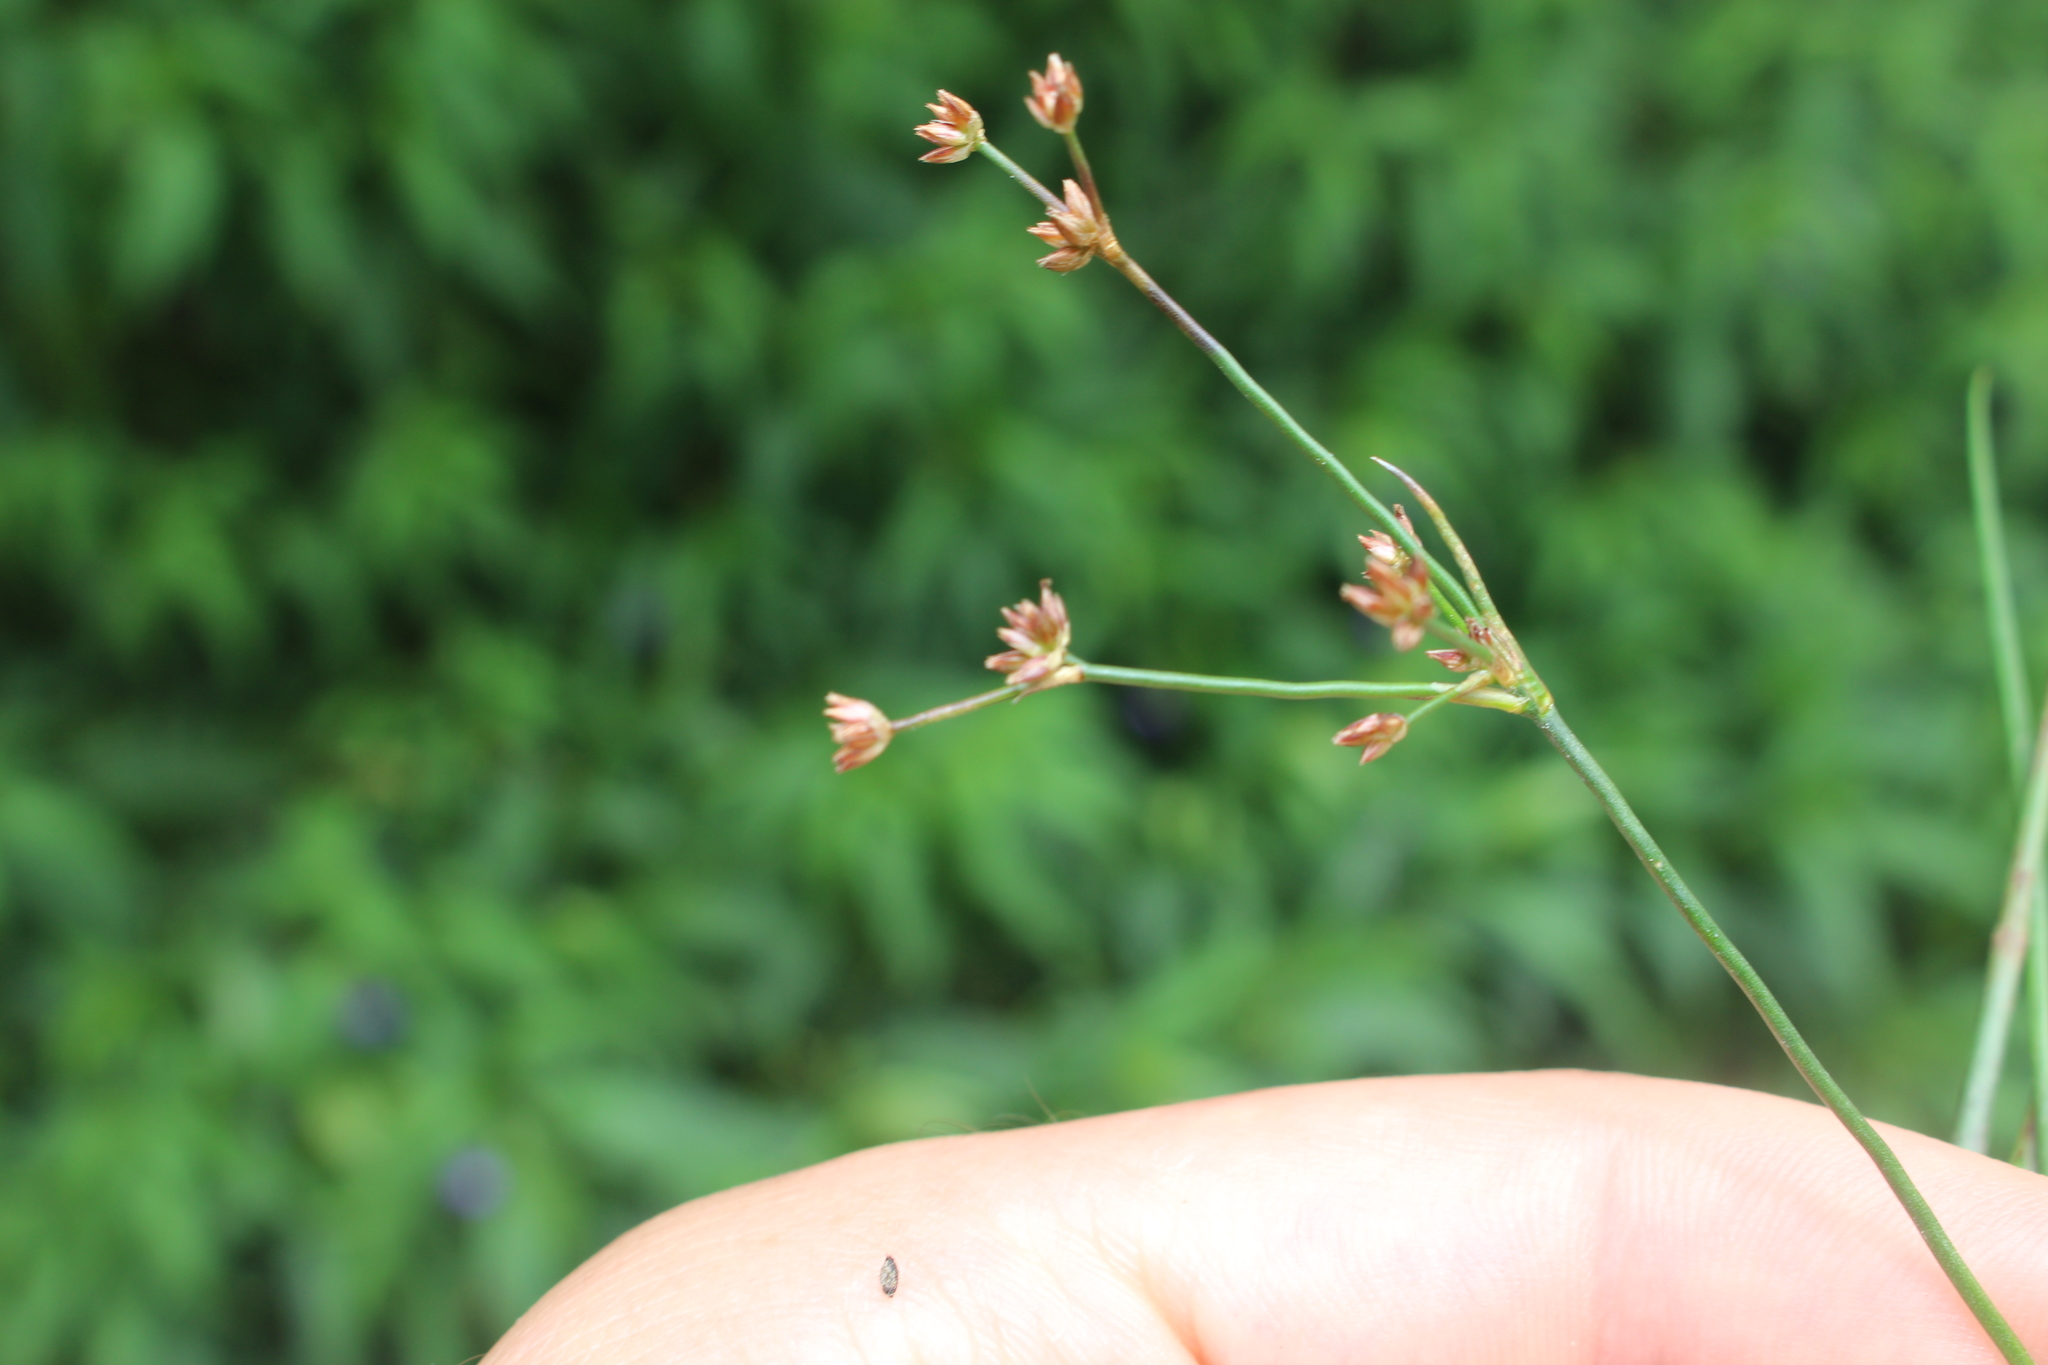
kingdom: Plantae
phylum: Tracheophyta
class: Liliopsida
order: Poales
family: Juncaceae
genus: Juncus
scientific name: Juncus bulbosus
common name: Bulbous rush
